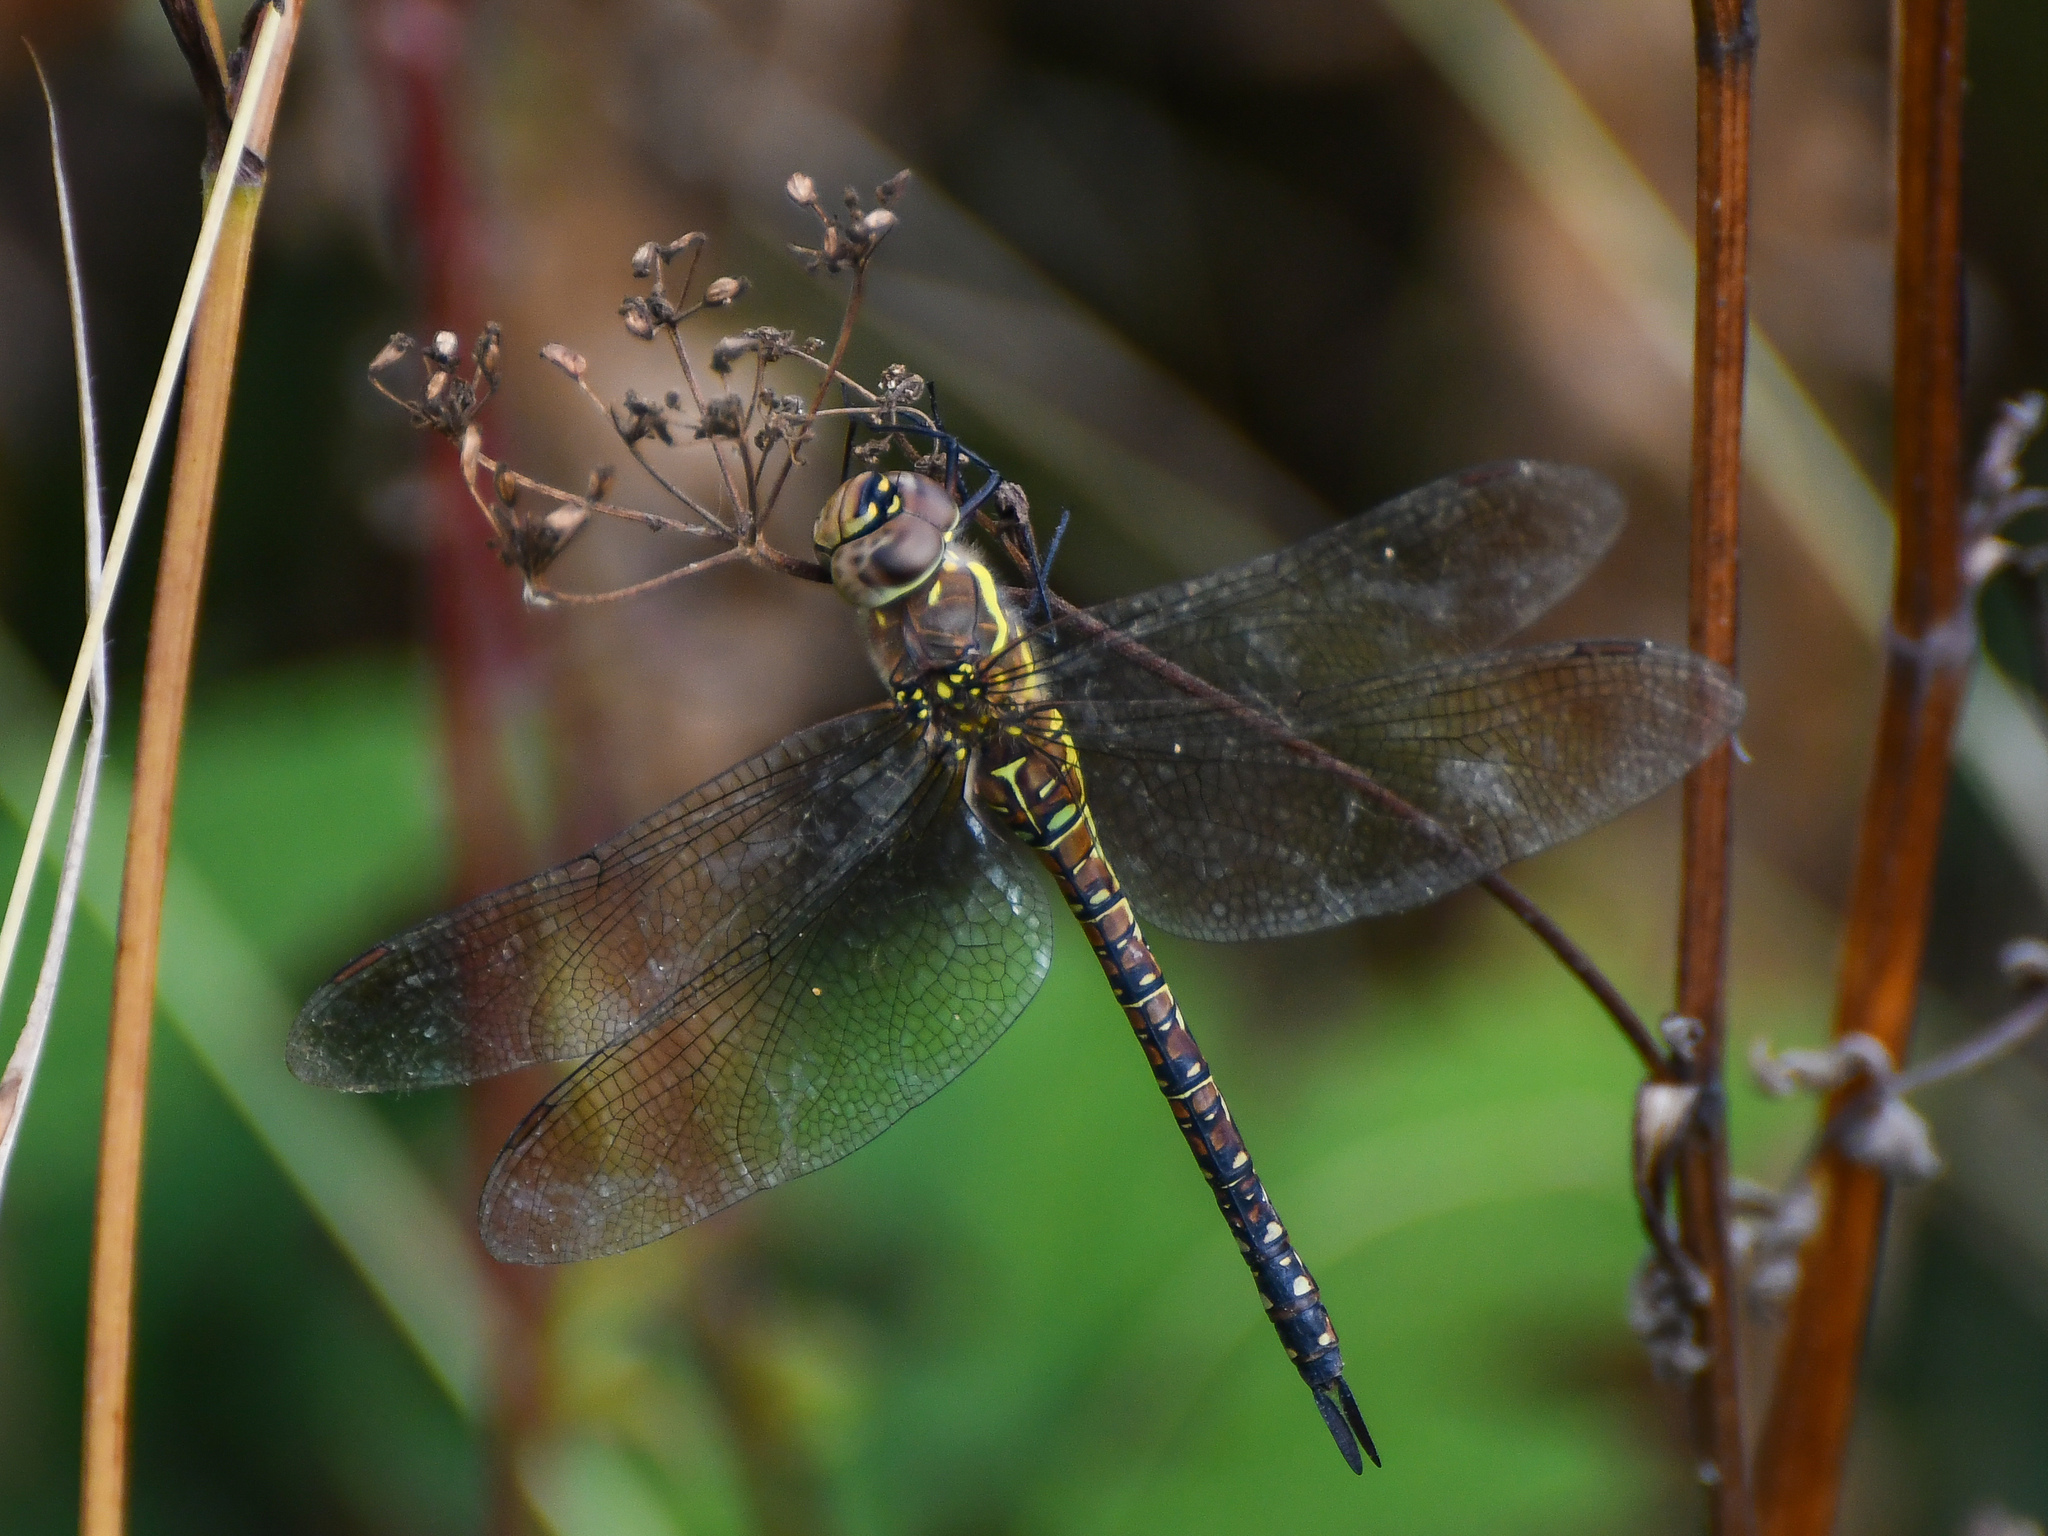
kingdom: Animalia
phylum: Arthropoda
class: Insecta
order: Odonata
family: Aeshnidae
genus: Aeshna
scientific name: Aeshna mixta
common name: Migrant hawker
